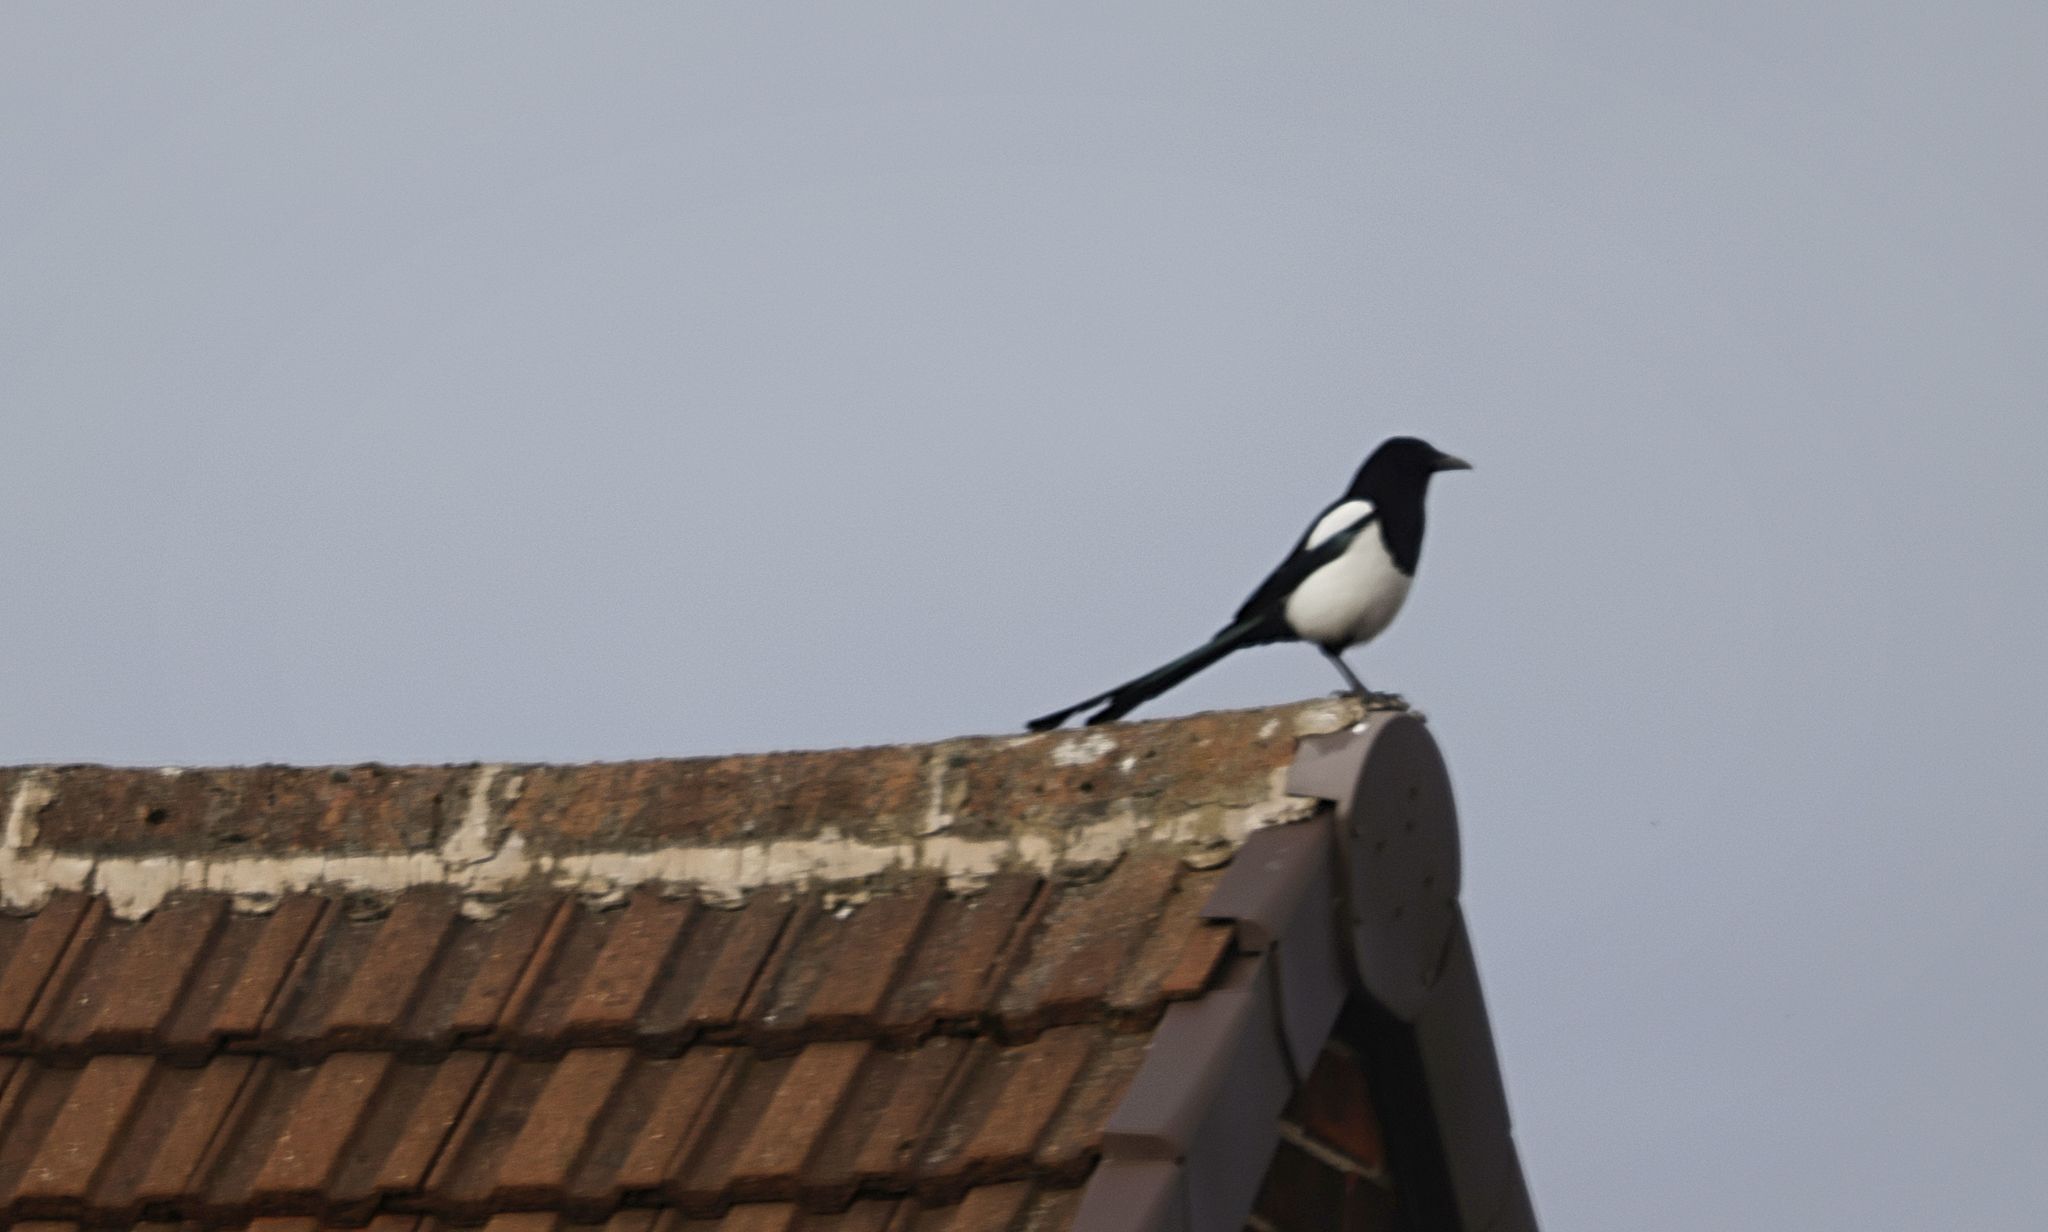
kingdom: Animalia
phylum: Chordata
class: Aves
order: Passeriformes
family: Corvidae
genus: Pica
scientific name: Pica pica
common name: Eurasian magpie
